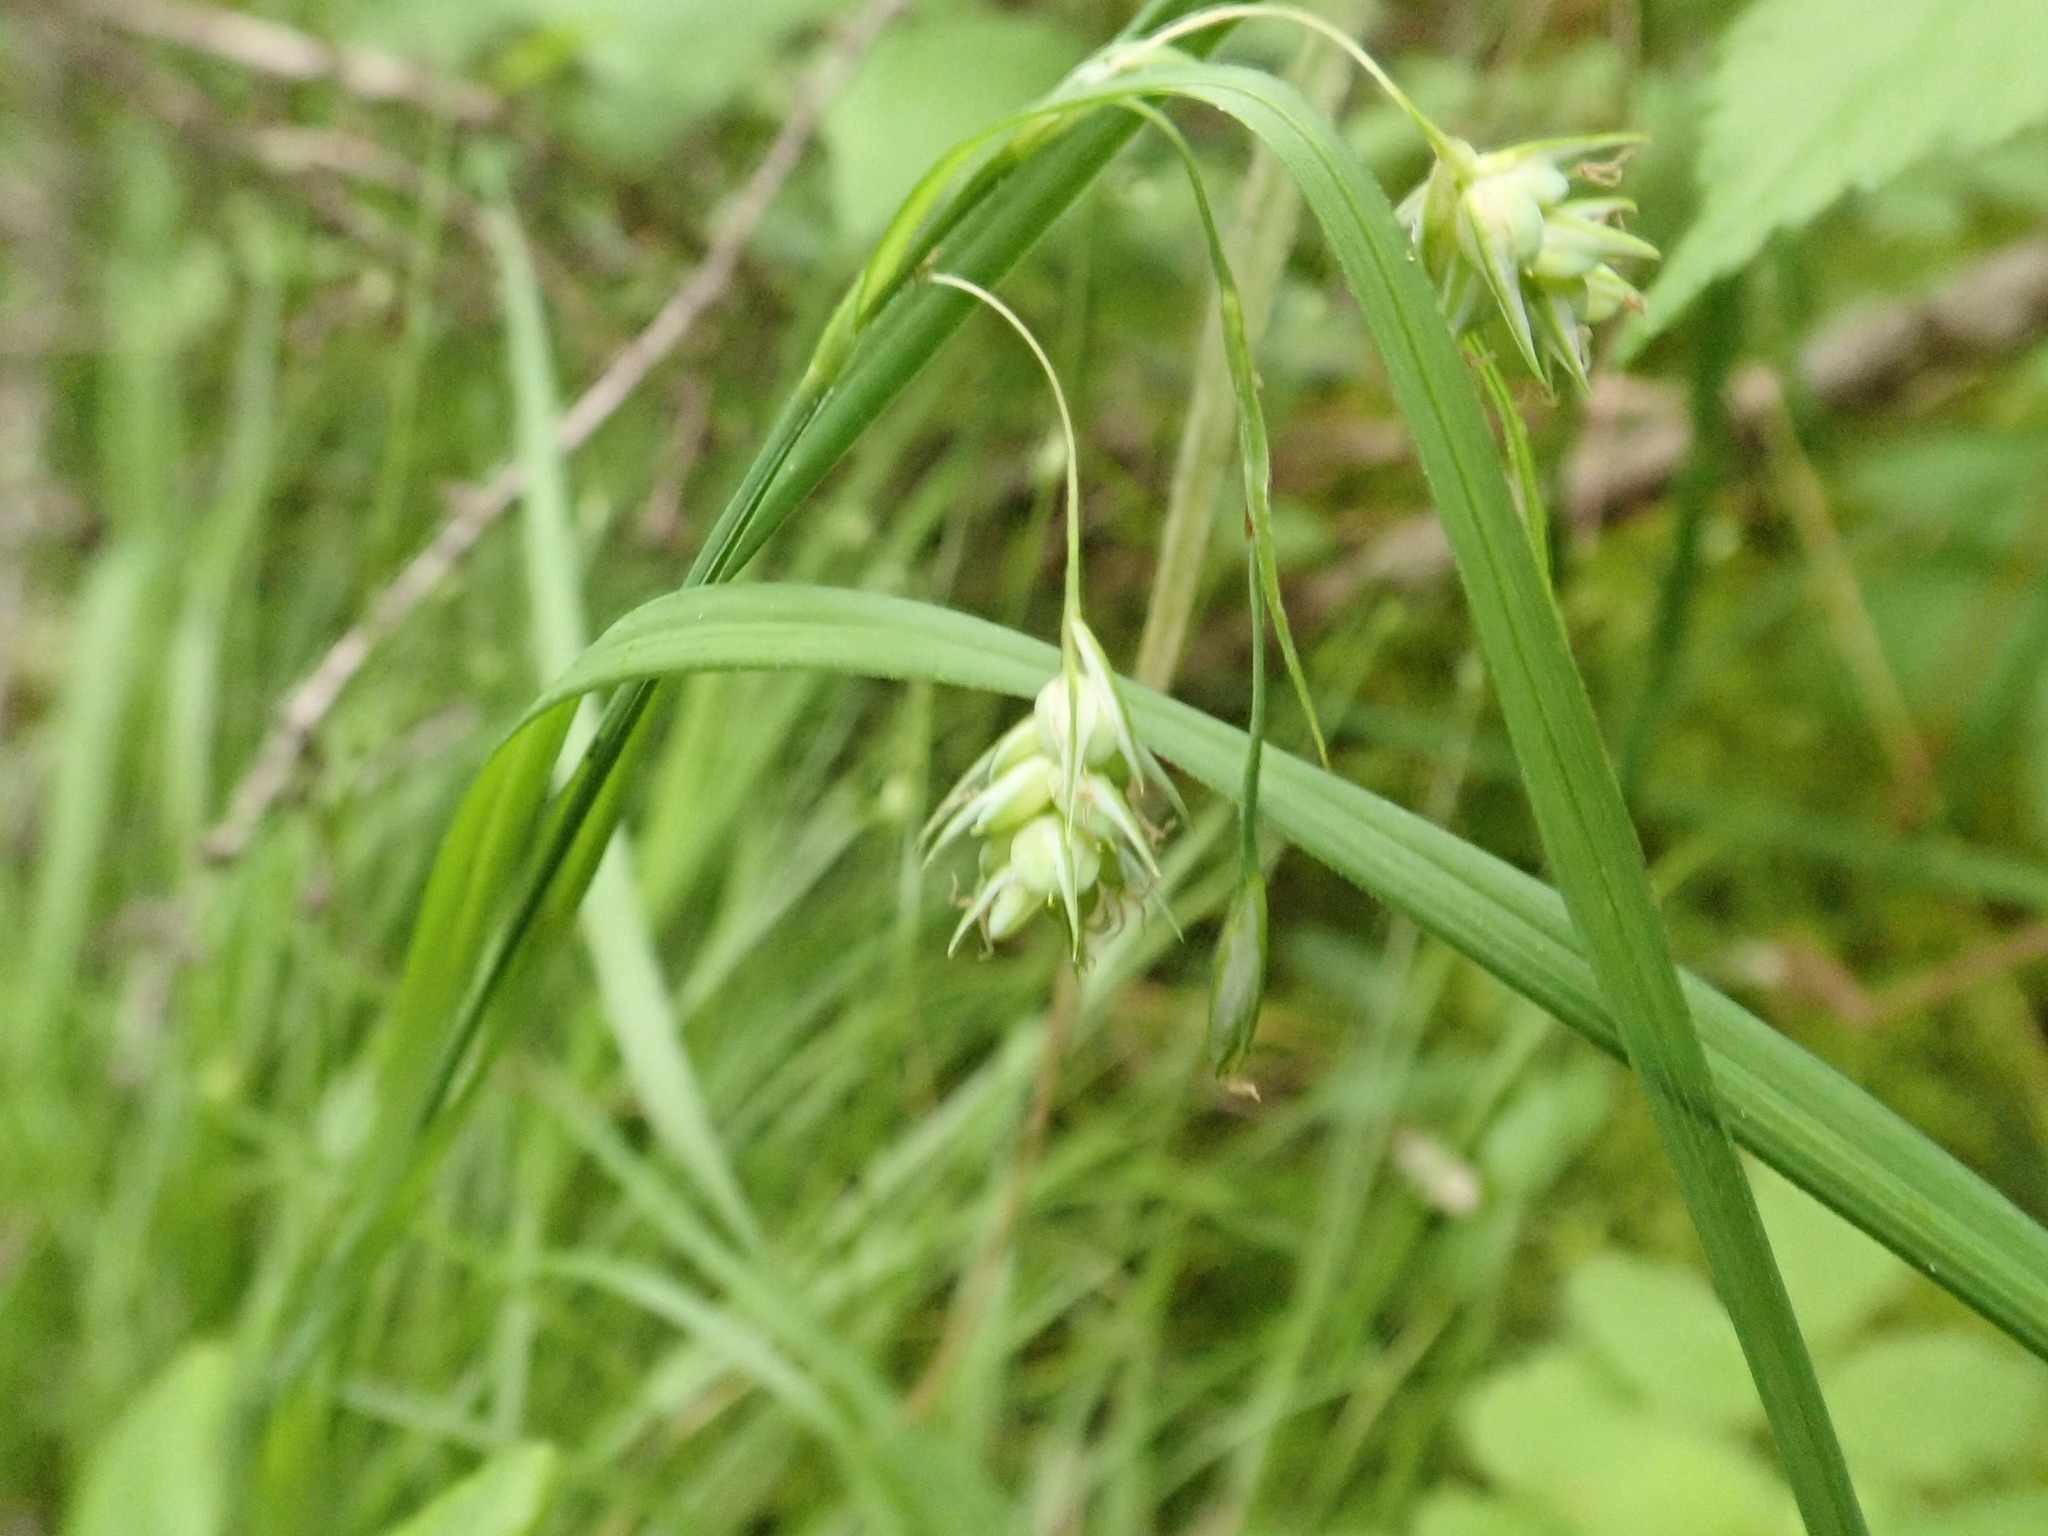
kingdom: Plantae
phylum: Tracheophyta
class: Liliopsida
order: Poales
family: Cyperaceae
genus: Carex
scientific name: Carex magellanica
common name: Bog sedge
